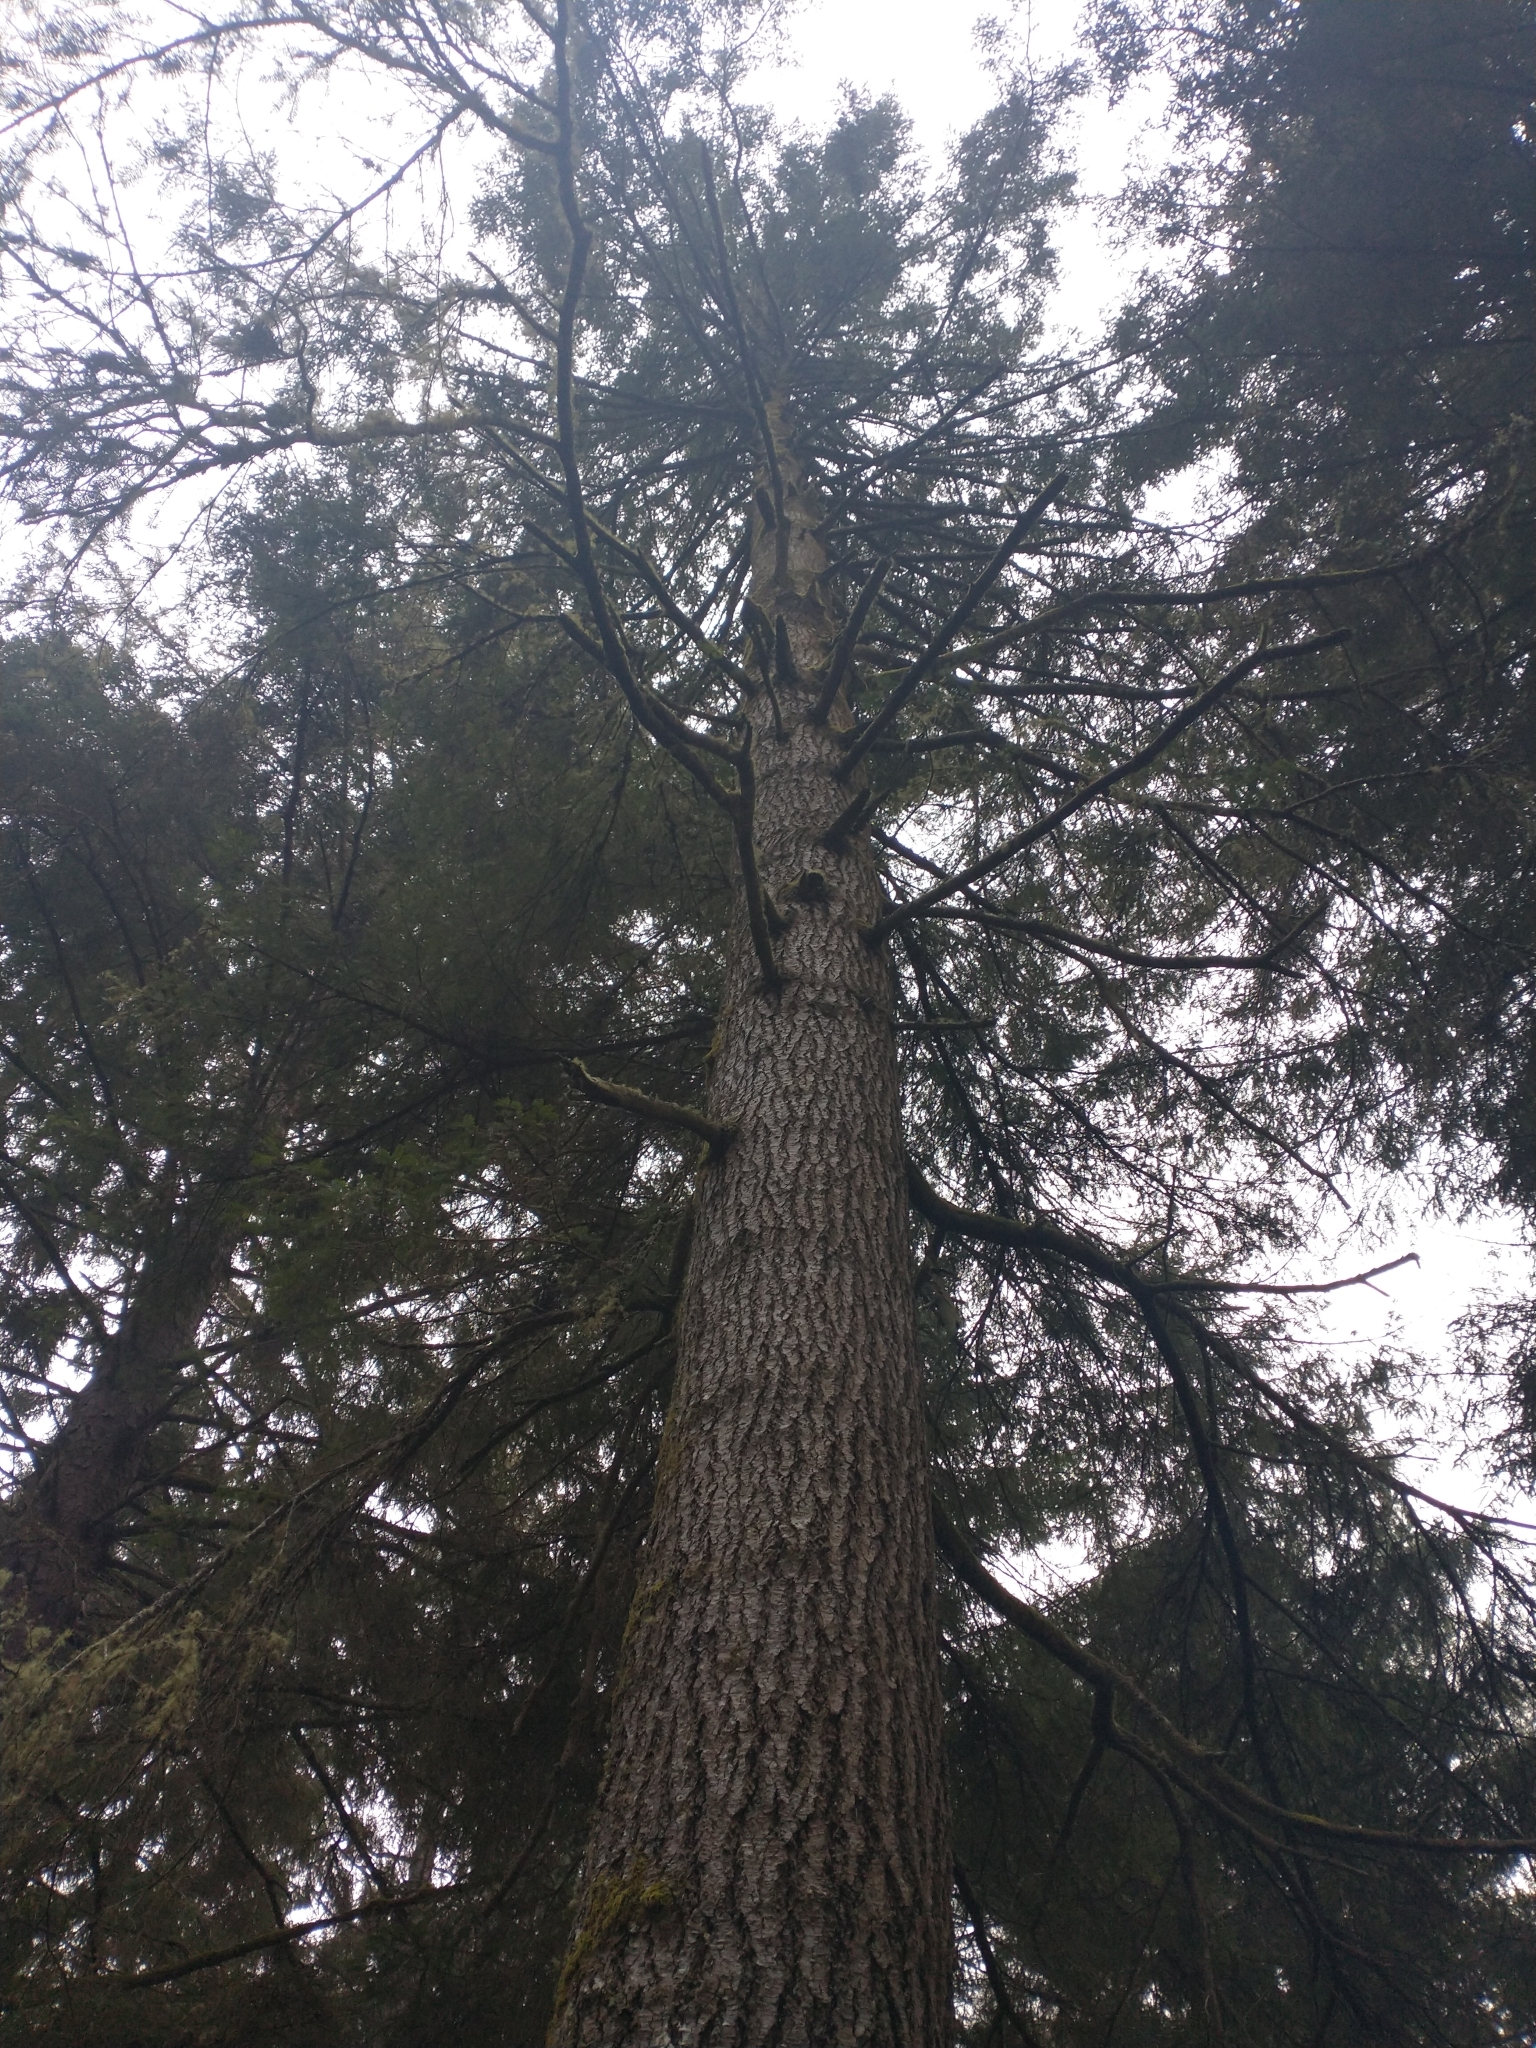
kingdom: Plantae
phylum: Tracheophyta
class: Pinopsida
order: Pinales
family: Pinaceae
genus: Pseudotsuga
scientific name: Pseudotsuga menziesii
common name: Douglas fir
